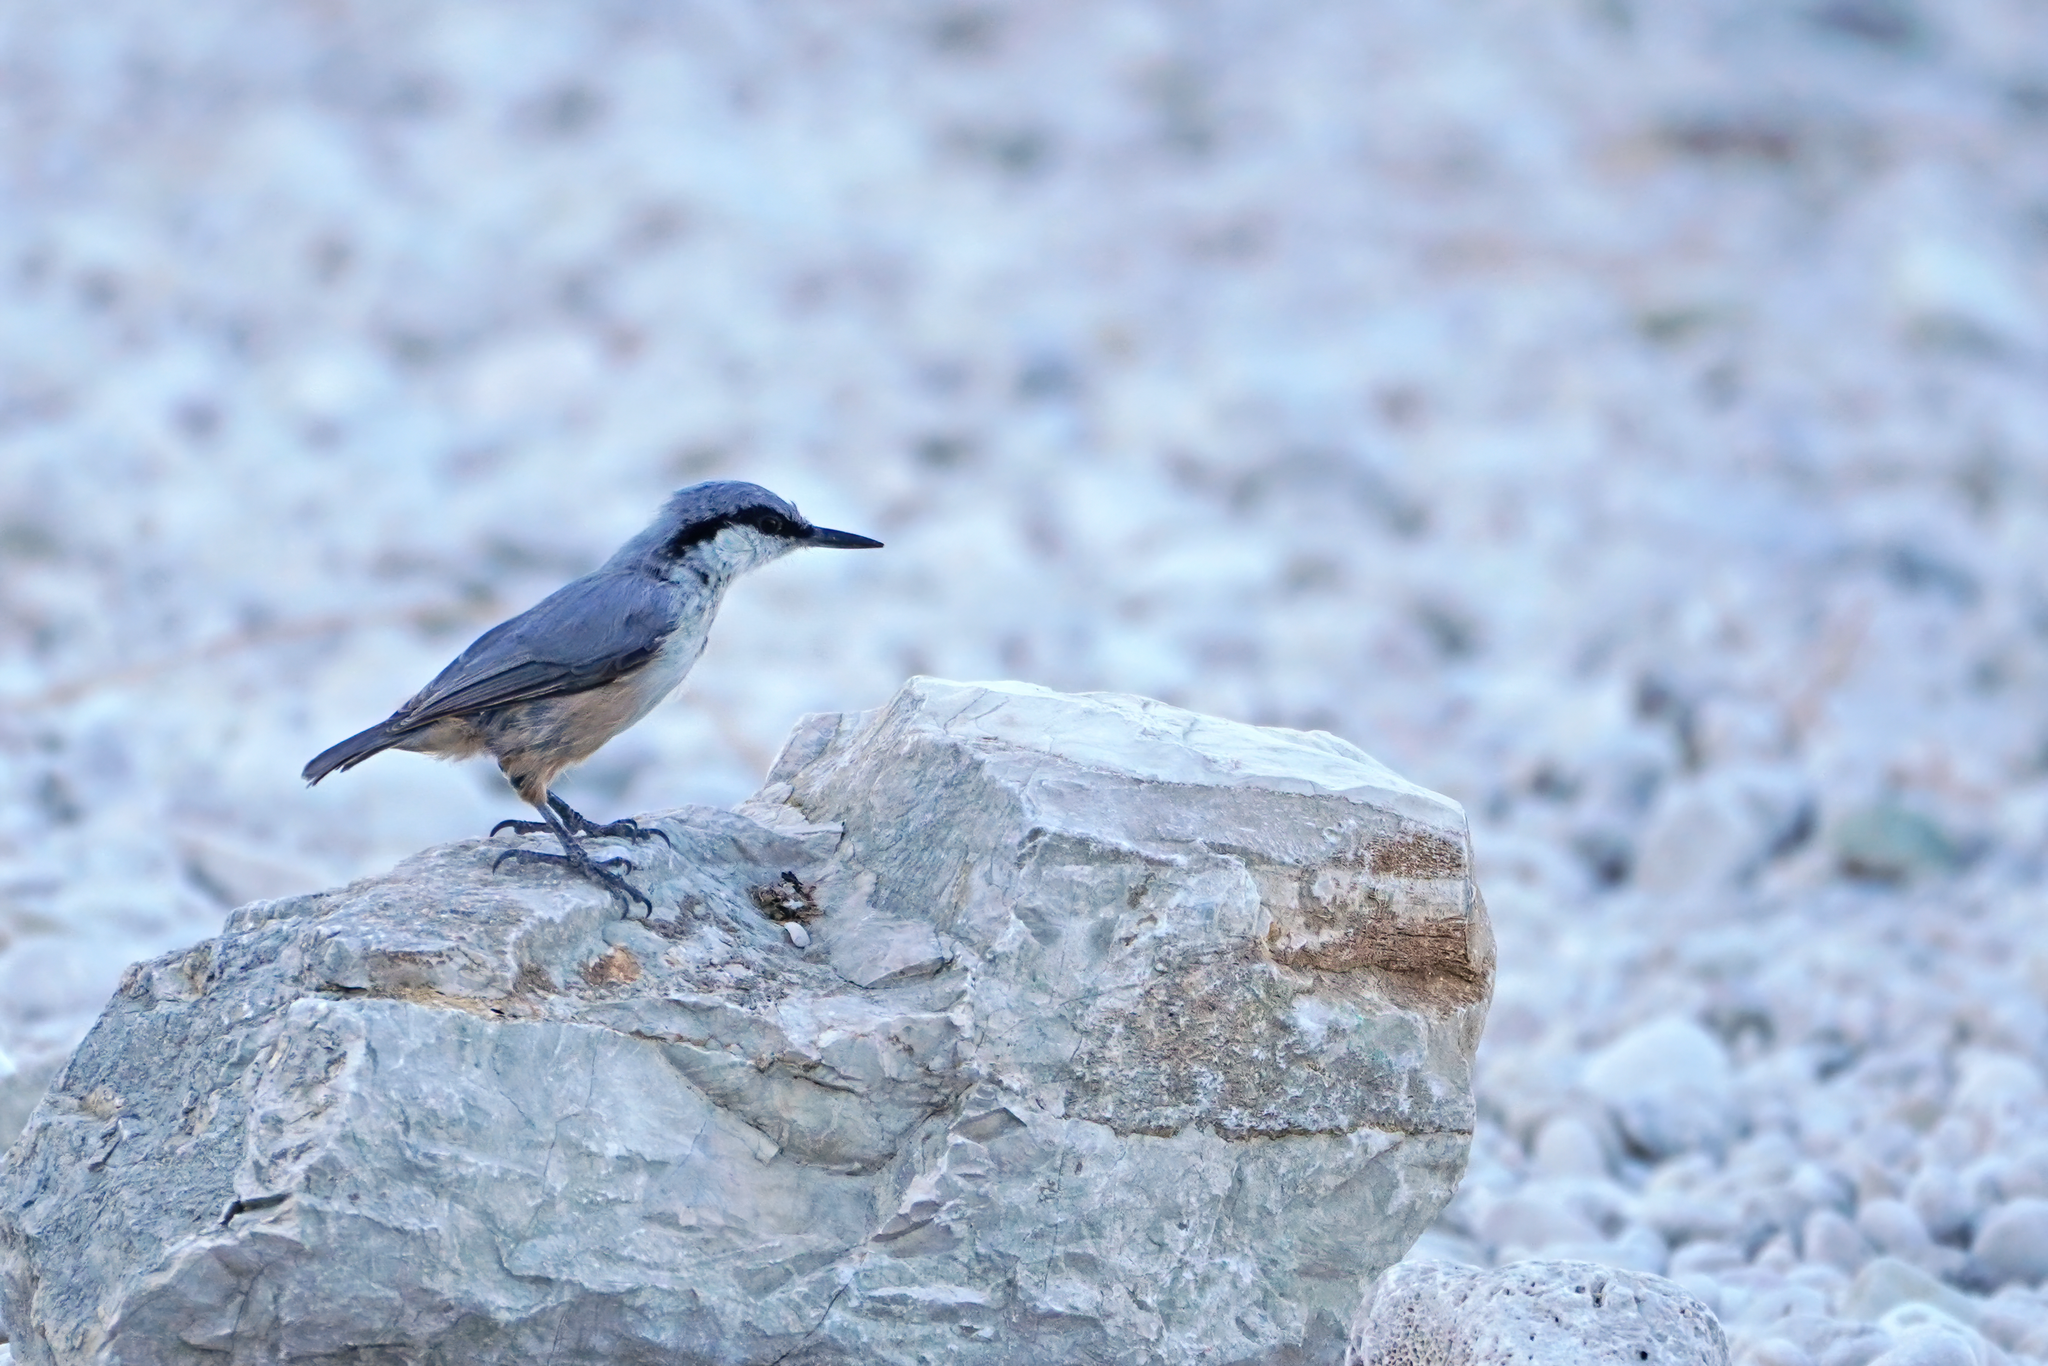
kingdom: Animalia
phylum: Chordata
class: Aves
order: Passeriformes
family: Sittidae
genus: Sitta
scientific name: Sitta neumayer
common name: Western rock nuthatch
